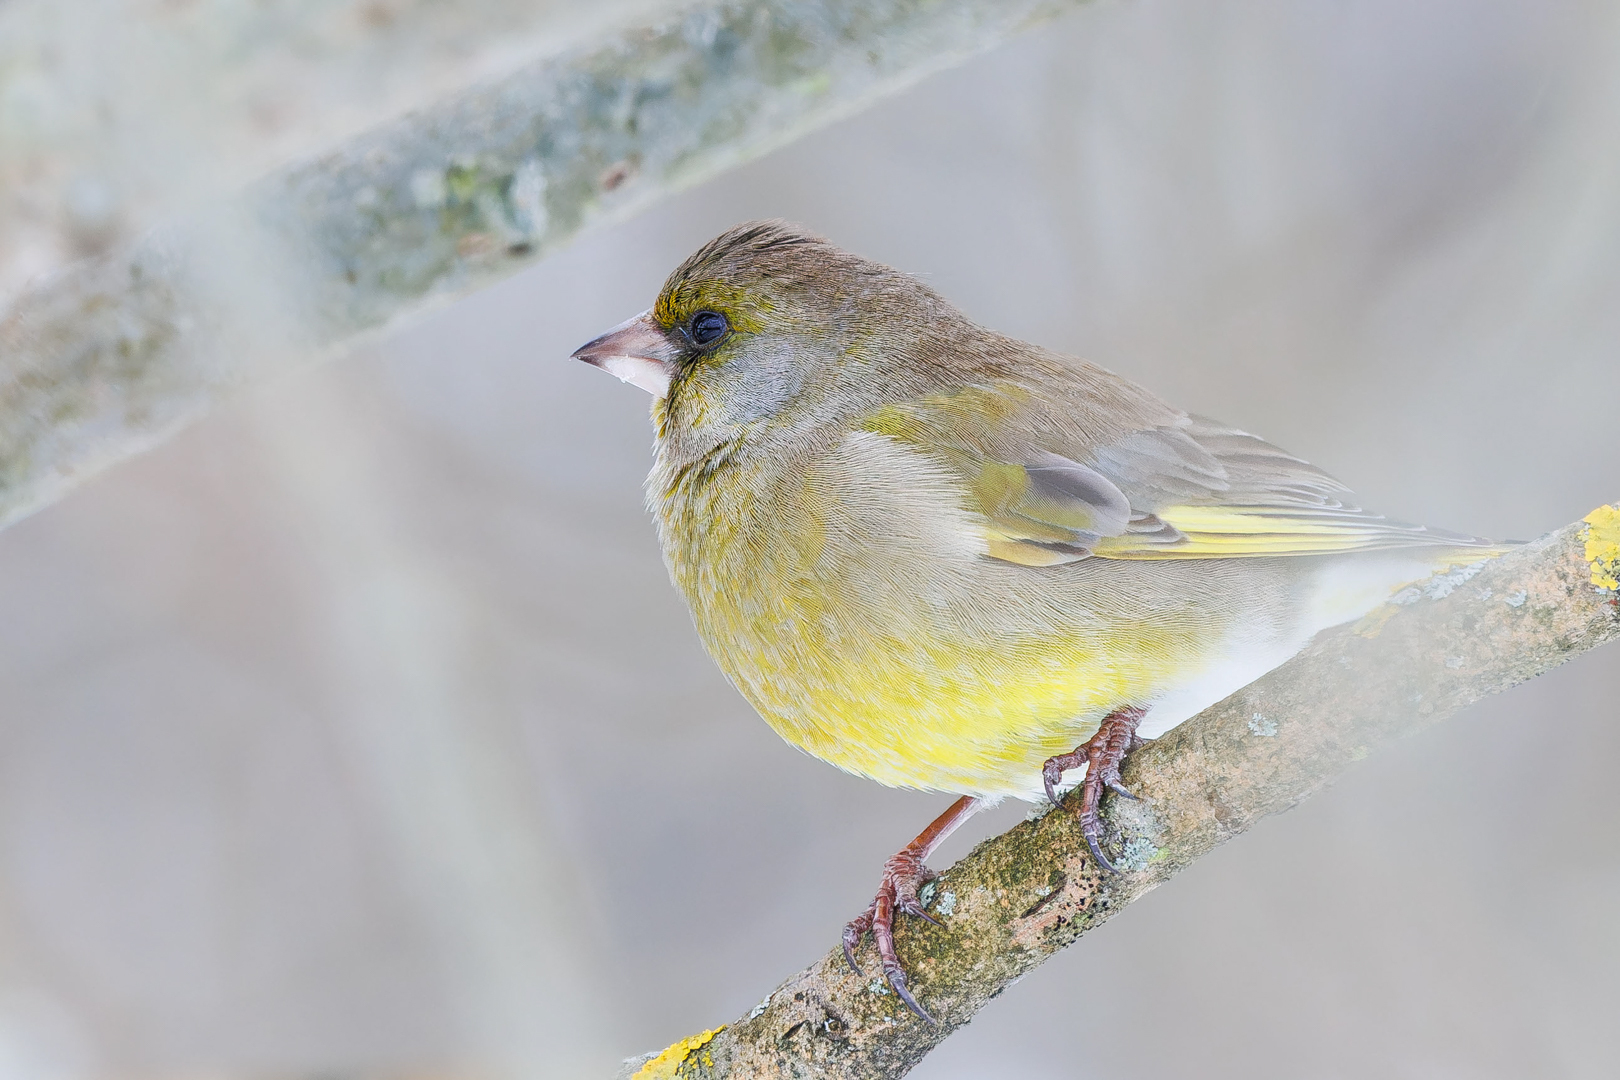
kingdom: Plantae
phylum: Tracheophyta
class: Liliopsida
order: Poales
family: Poaceae
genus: Chloris
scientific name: Chloris chloris
